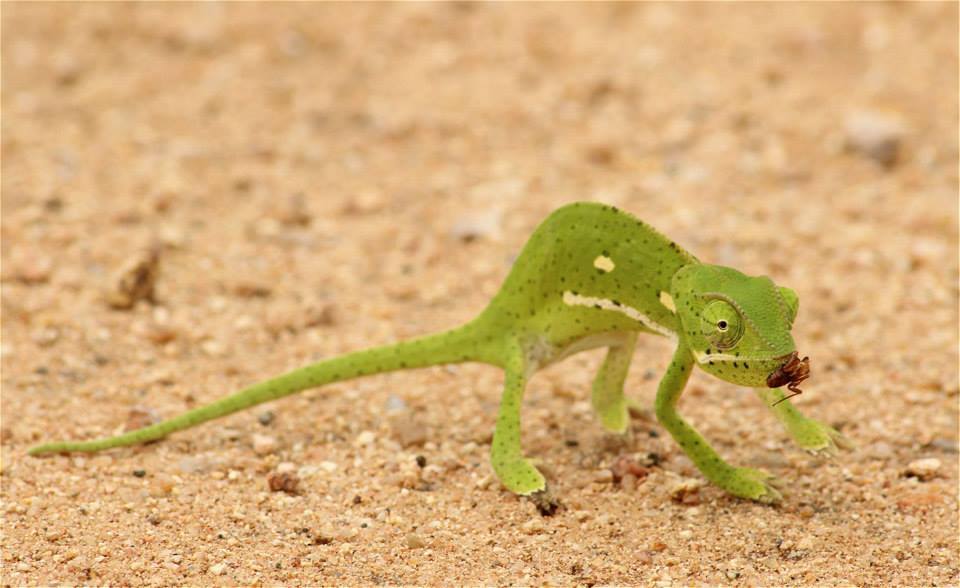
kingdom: Animalia
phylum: Chordata
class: Squamata
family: Chamaeleonidae
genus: Chamaeleo
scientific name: Chamaeleo dilepis
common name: Flapneck chameleon
